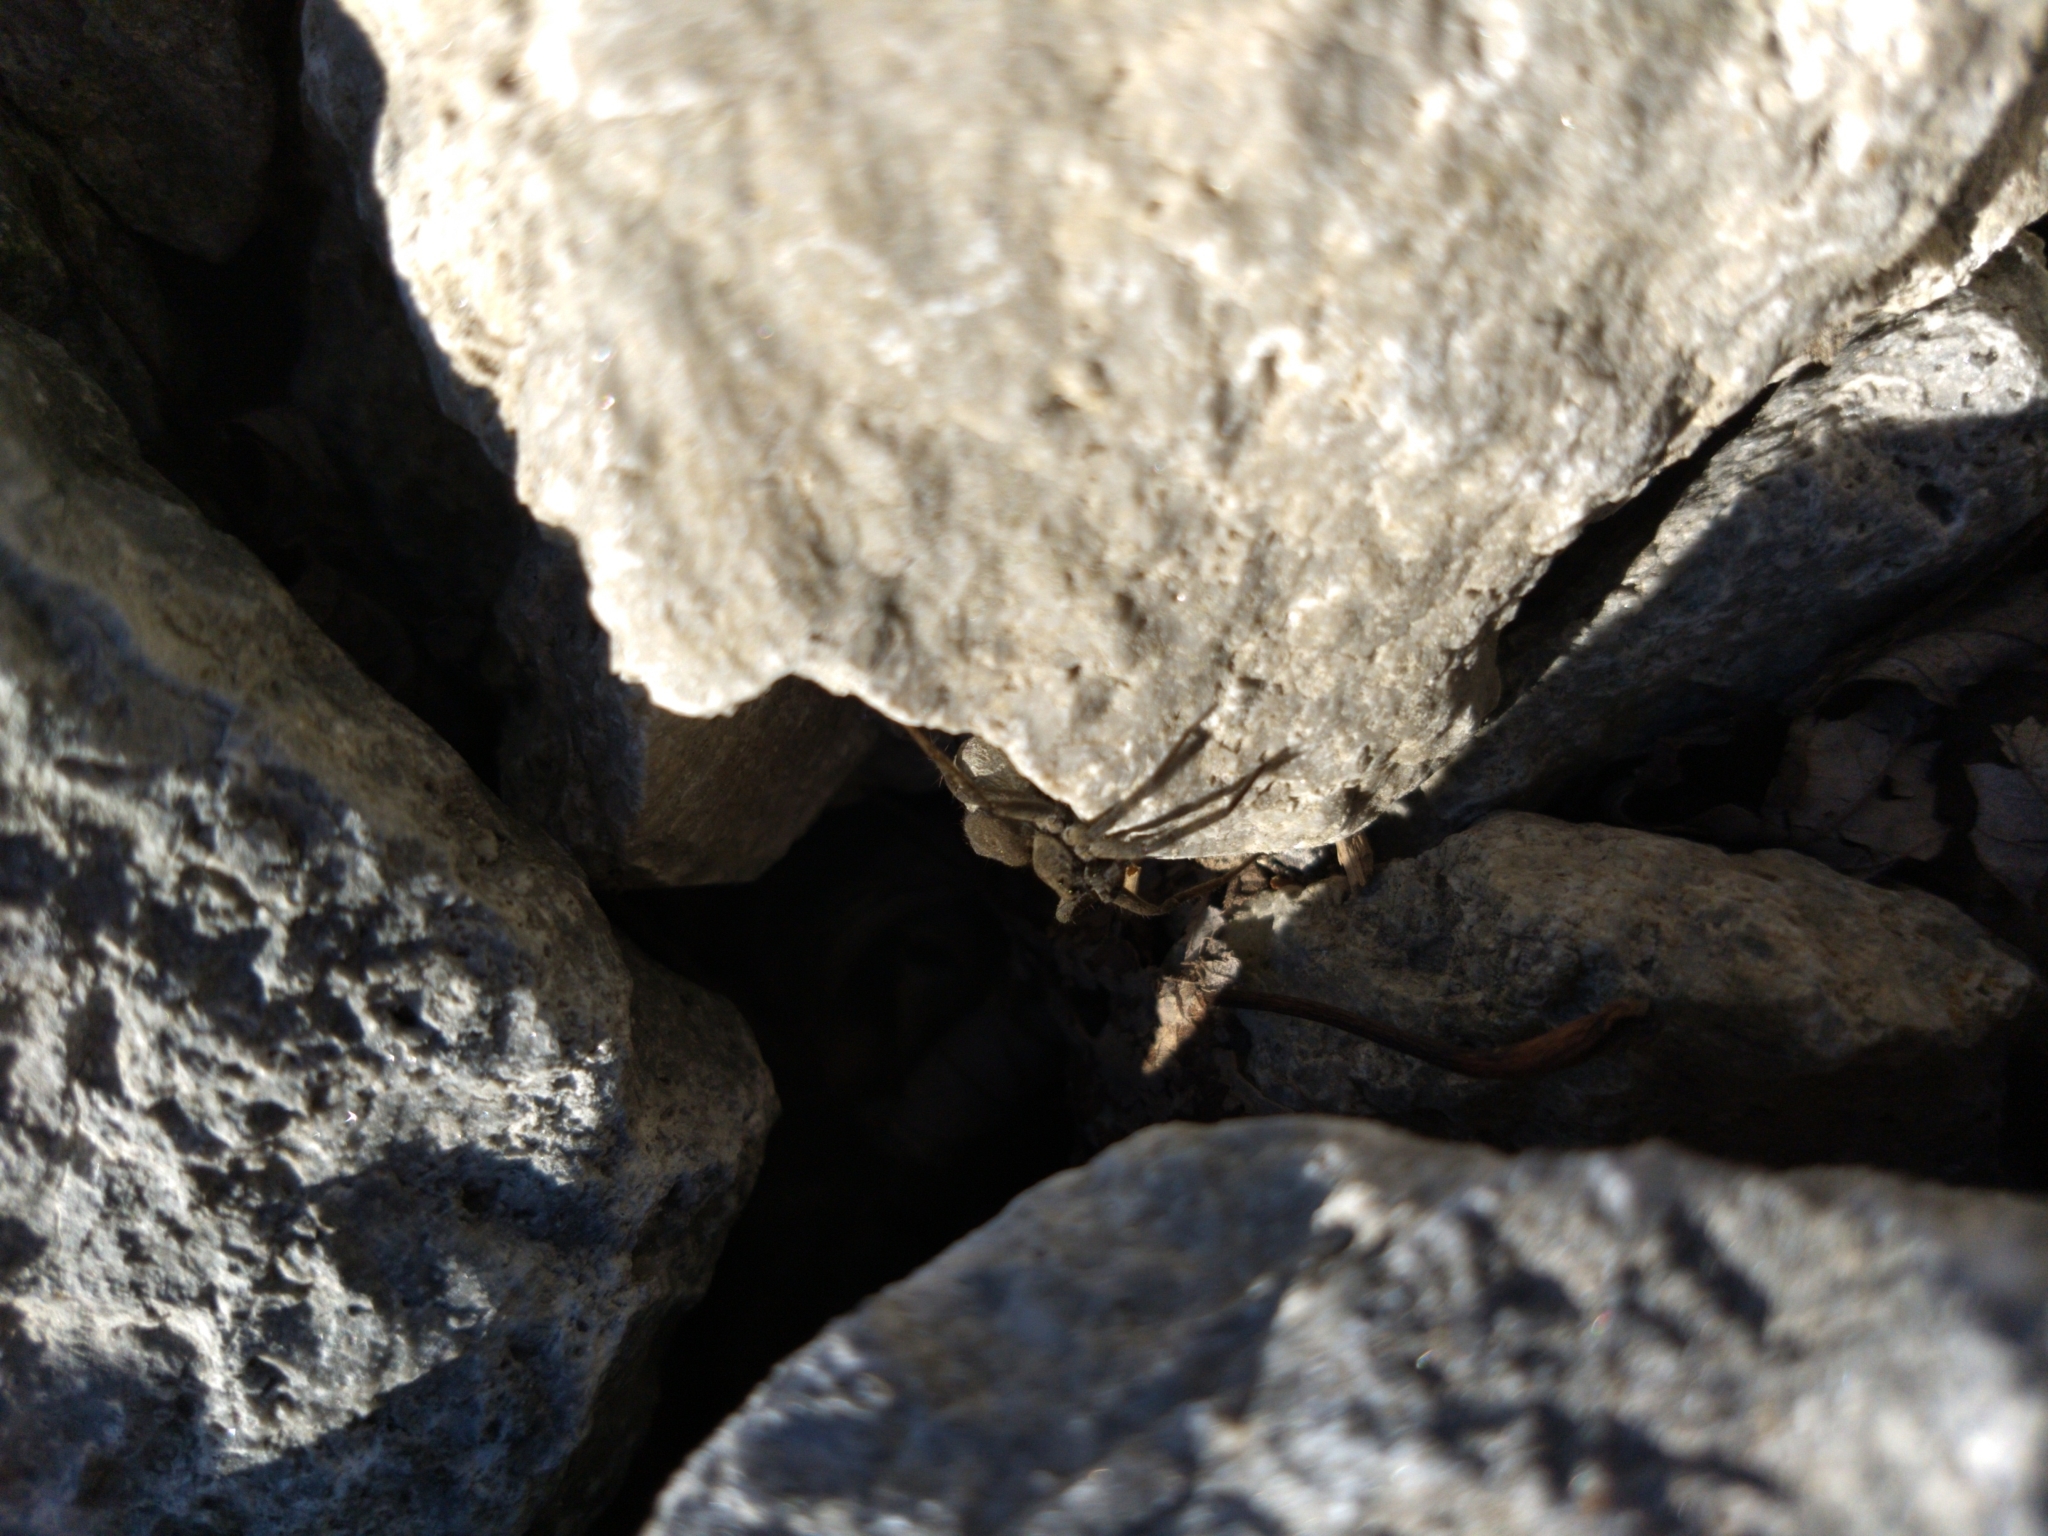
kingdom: Animalia
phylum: Arthropoda
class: Arachnida
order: Araneae
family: Lycosidae
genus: Pardosa
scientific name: Pardosa lapidicina
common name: Stone spider
